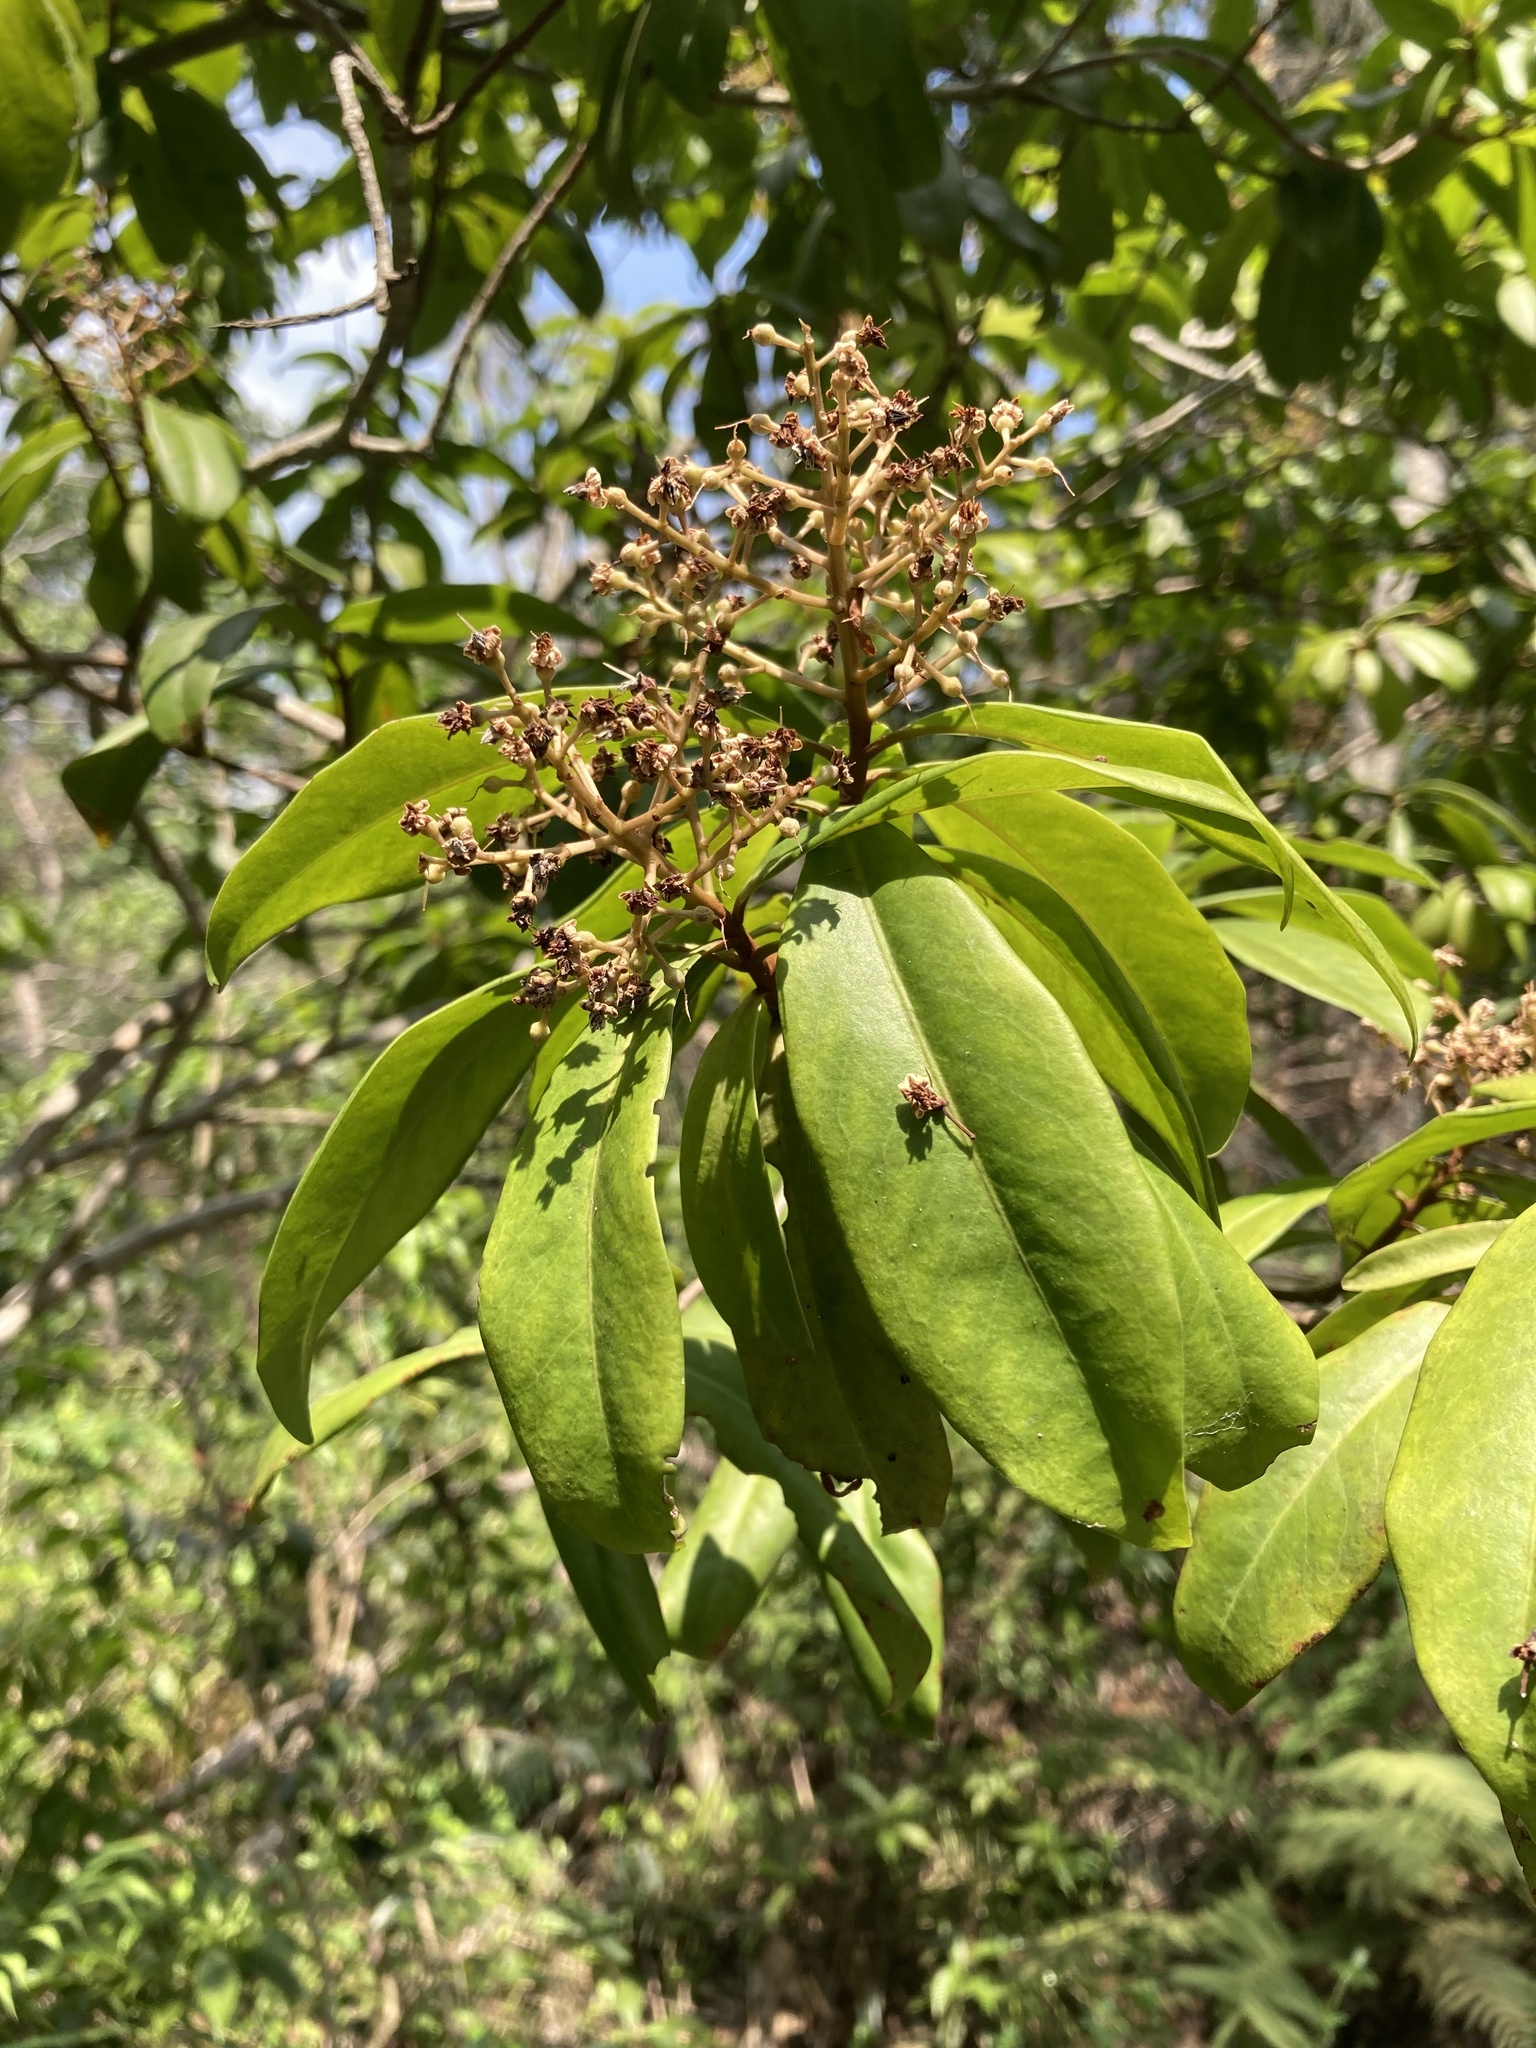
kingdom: Plantae
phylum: Tracheophyta
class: Magnoliopsida
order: Ericales
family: Primulaceae
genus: Ardisia
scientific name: Ardisia escallonioides
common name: Island marlberry
